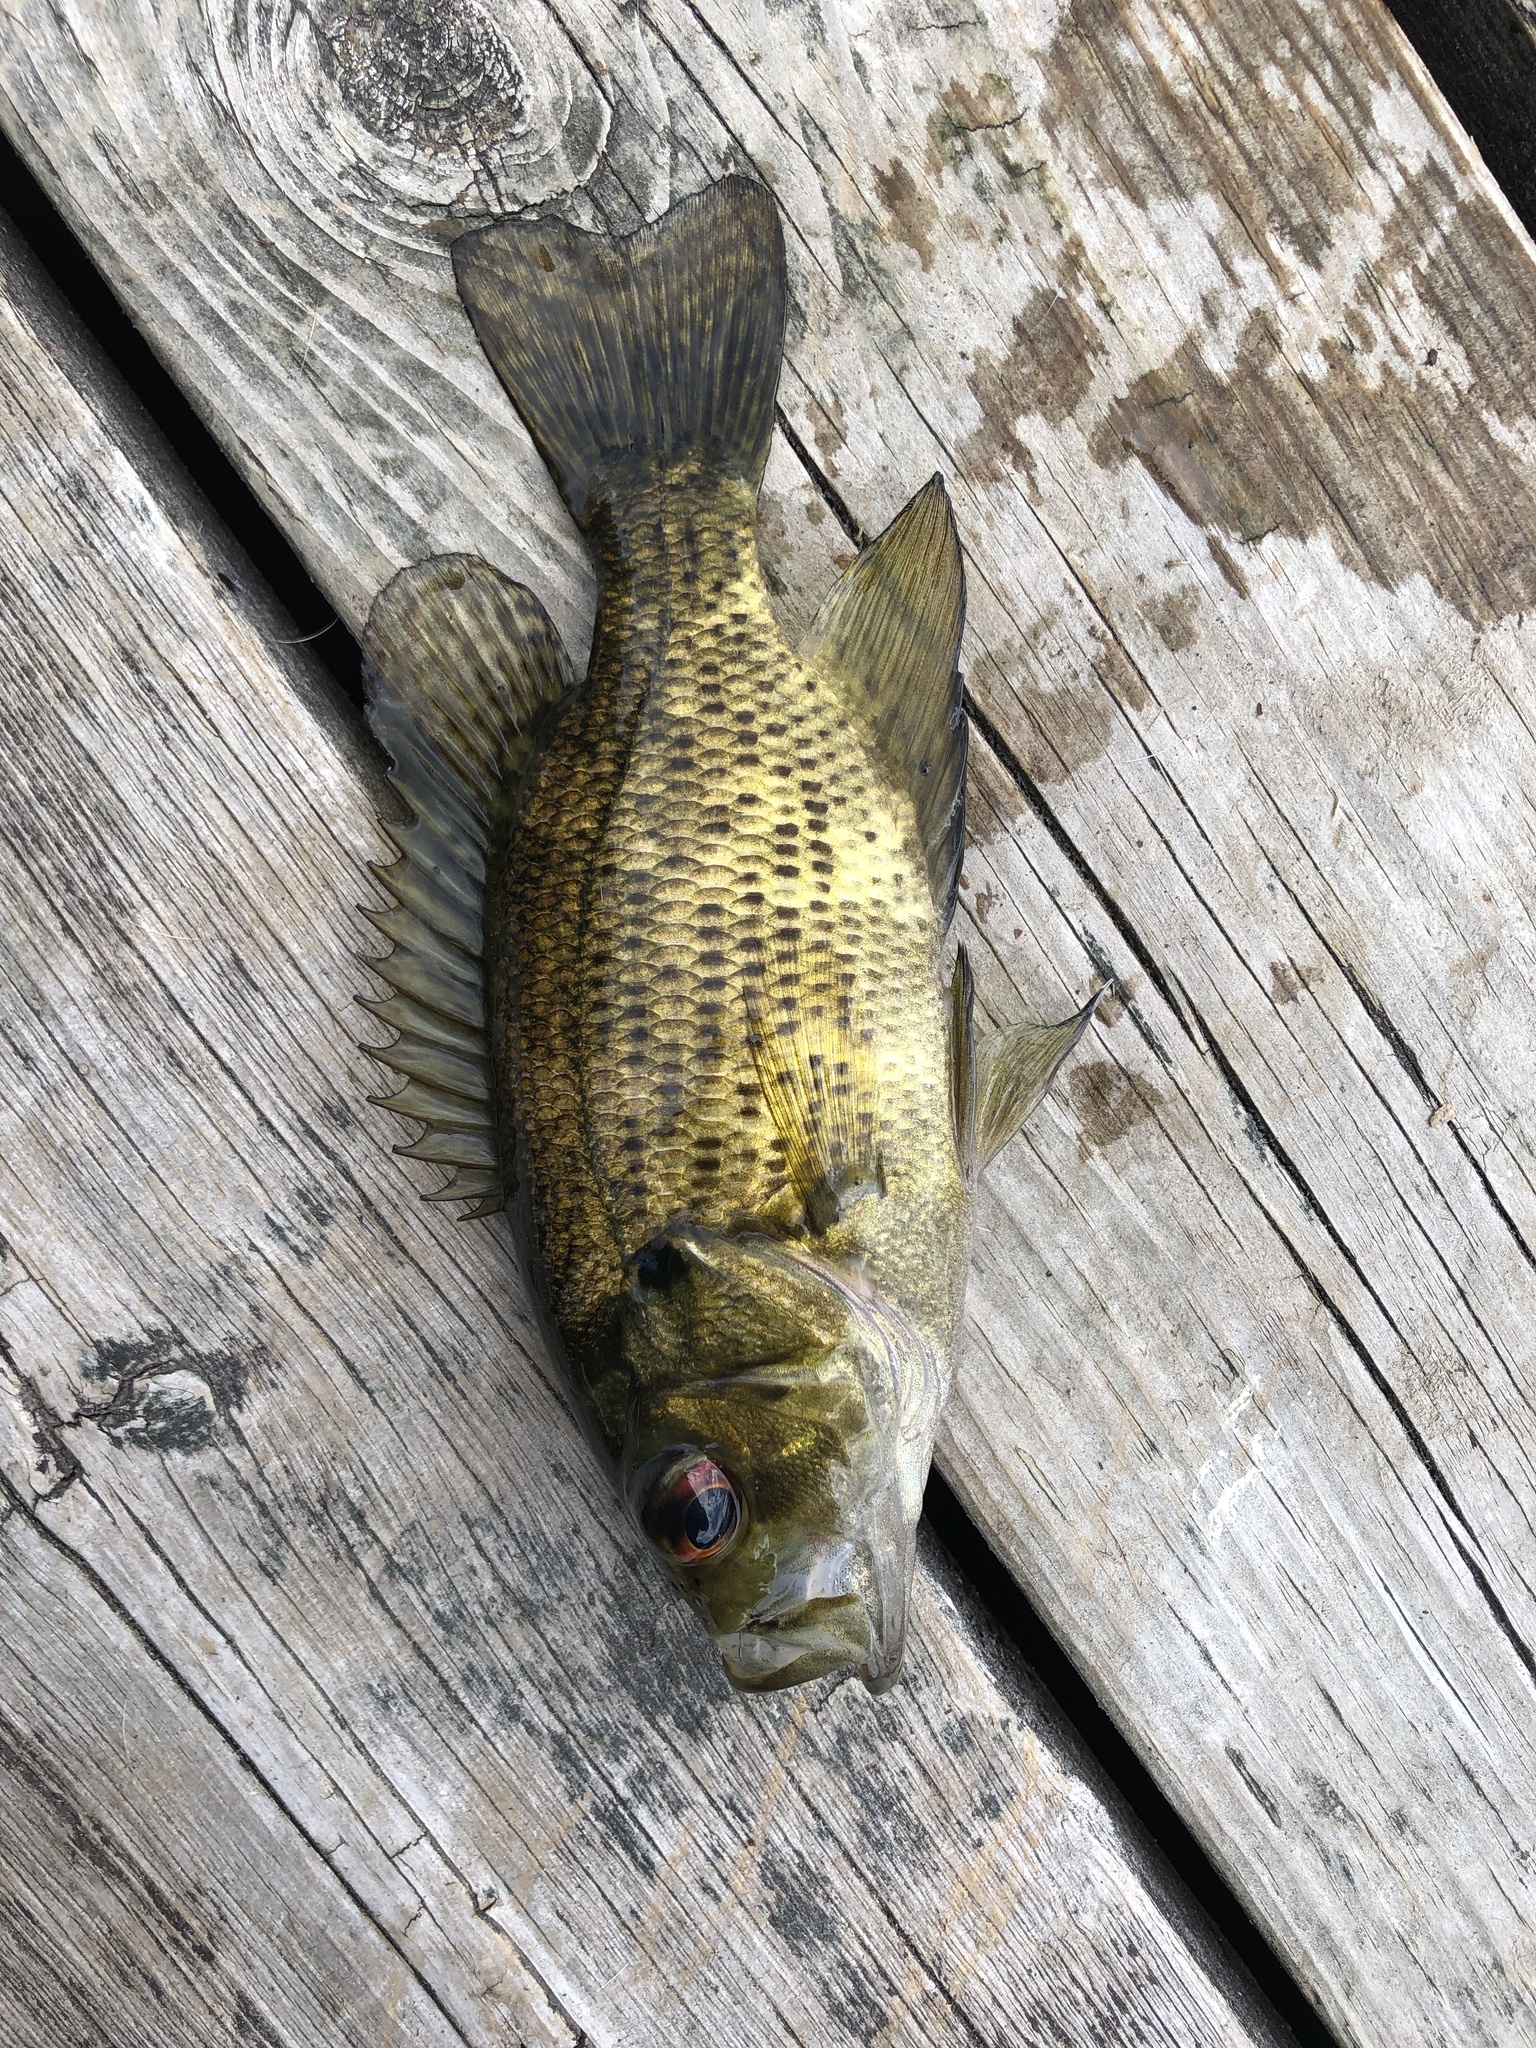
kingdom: Animalia
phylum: Chordata
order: Perciformes
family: Centrarchidae
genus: Ambloplites
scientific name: Ambloplites rupestris
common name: Rock bass
